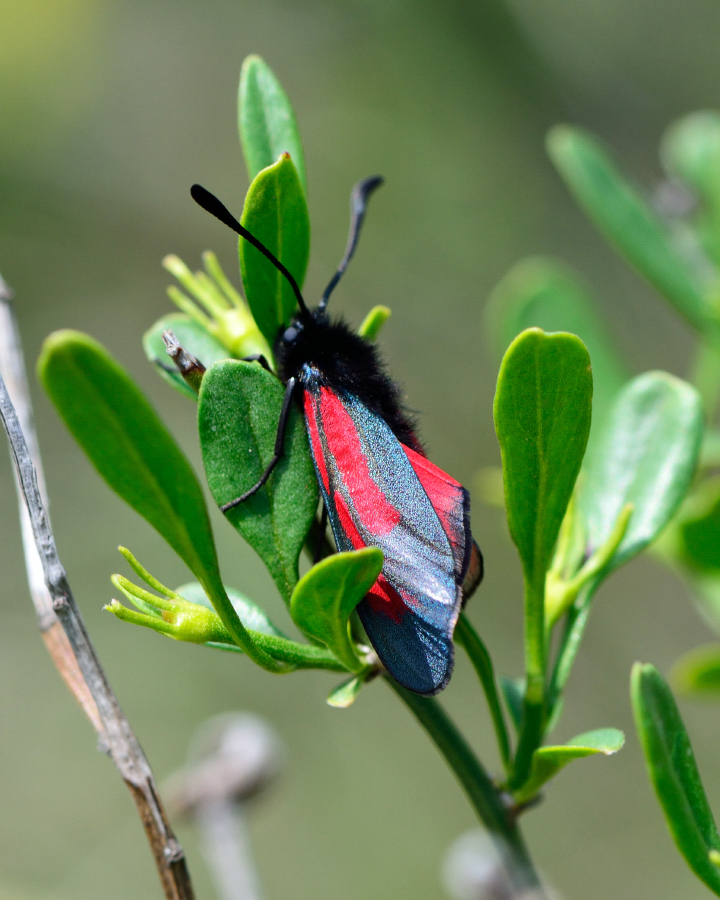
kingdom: Animalia
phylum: Arthropoda
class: Insecta
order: Lepidoptera
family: Zygaenidae
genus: Zygaena
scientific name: Zygaena purpuralis
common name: Transparent burnet
